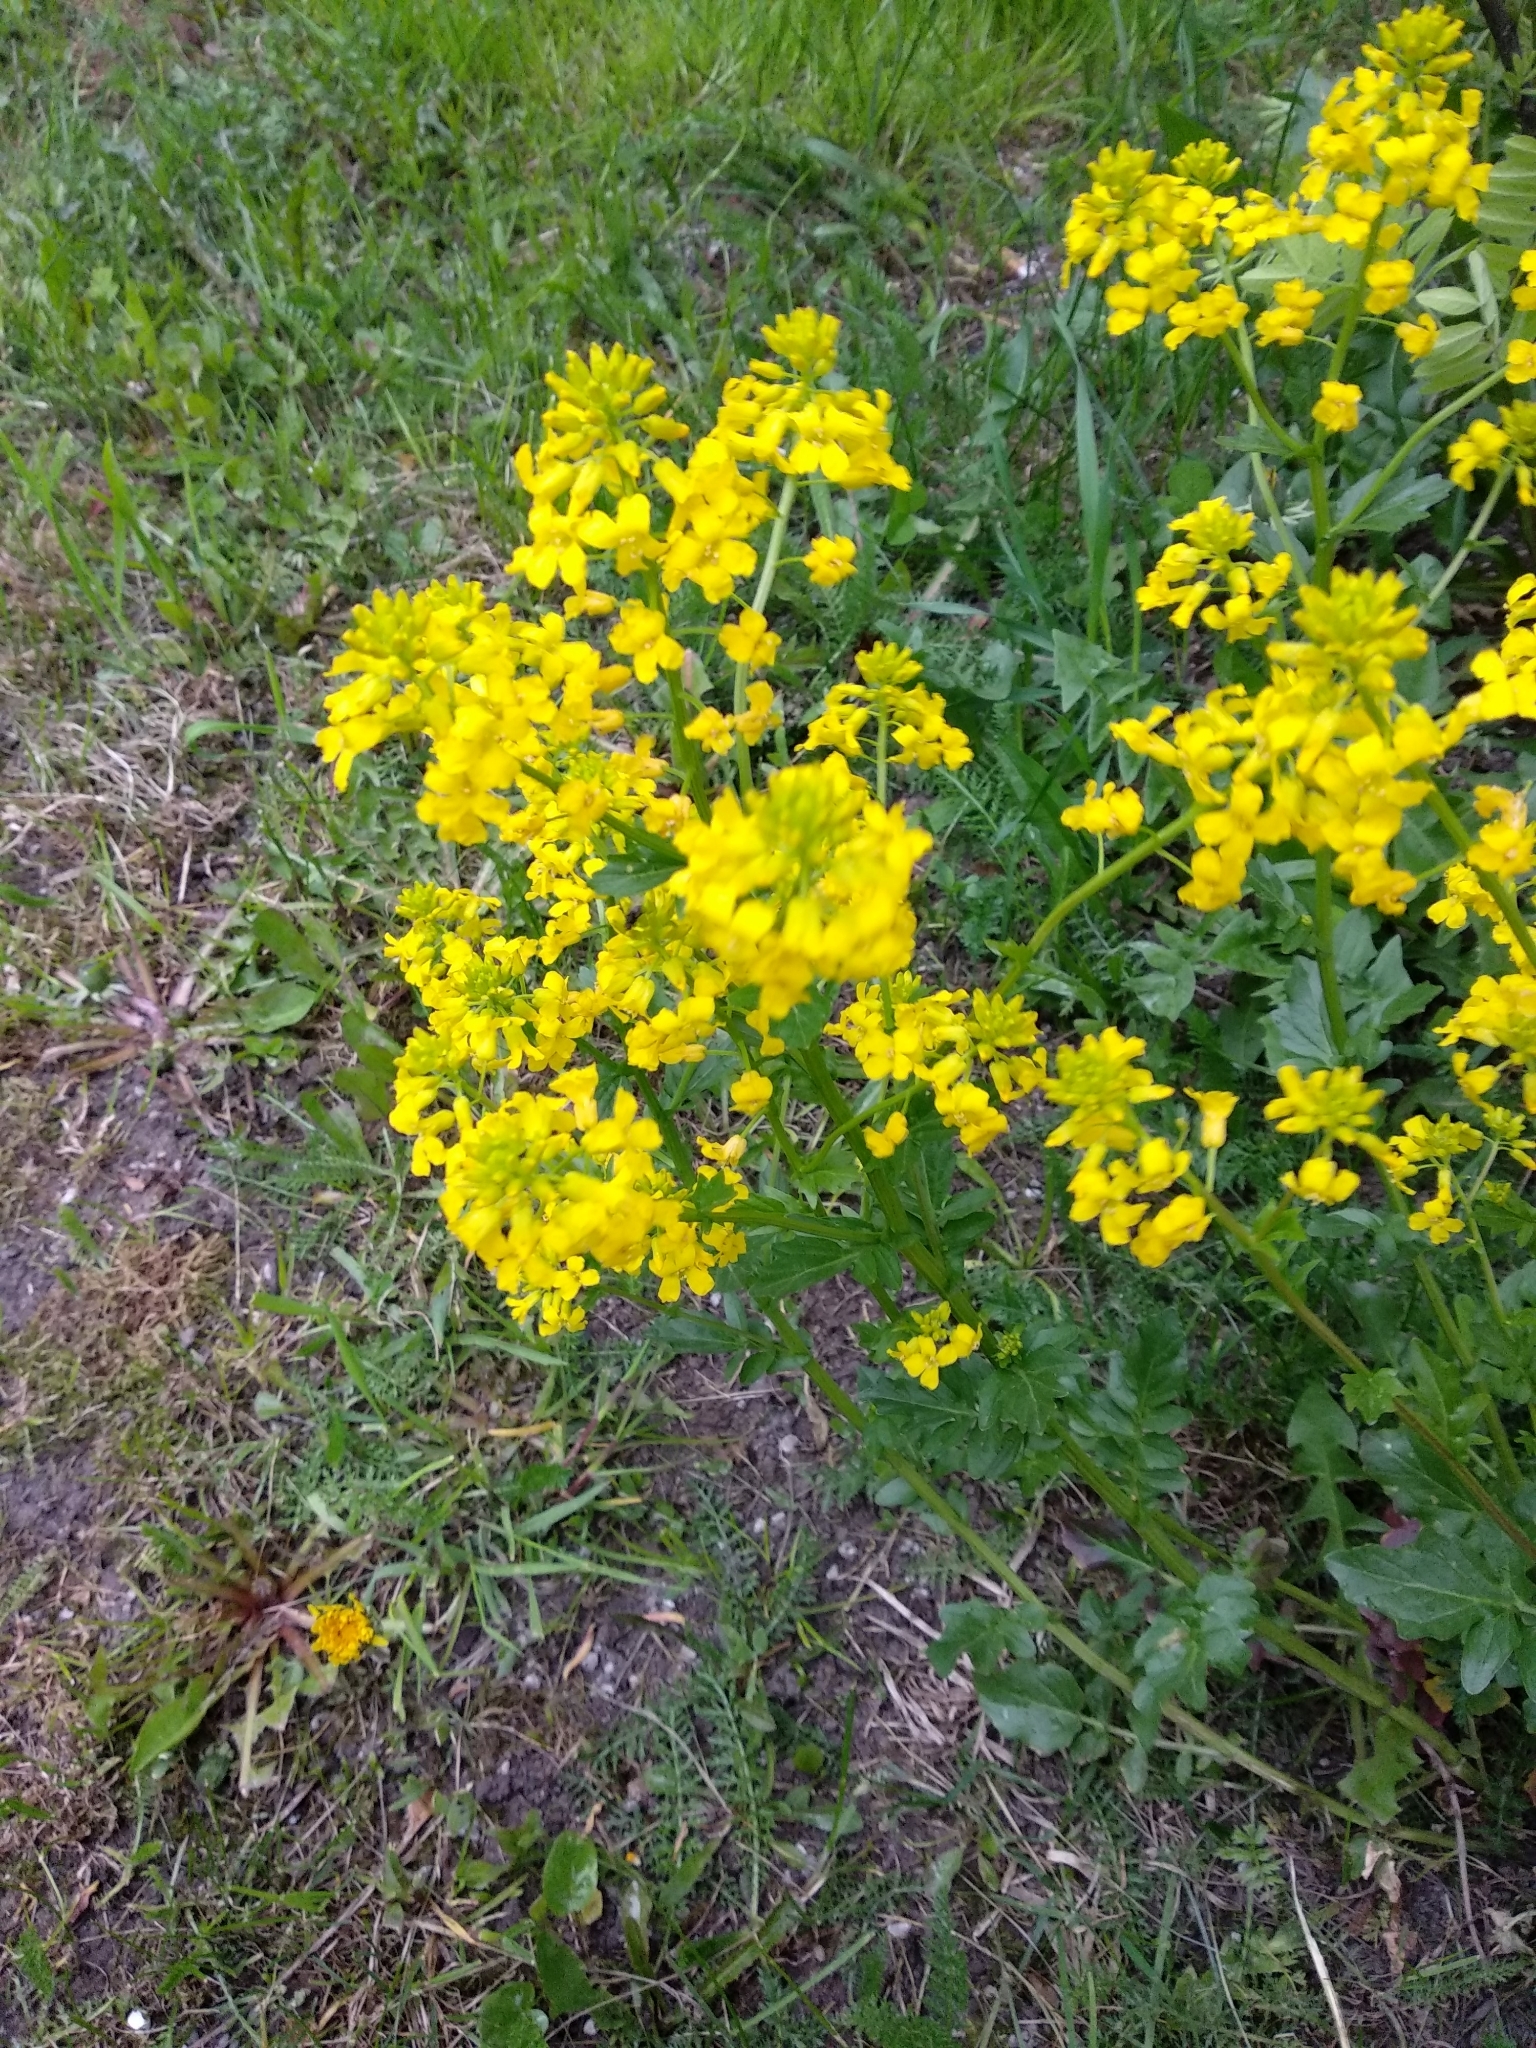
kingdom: Plantae
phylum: Tracheophyta
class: Magnoliopsida
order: Brassicales
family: Brassicaceae
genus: Barbarea
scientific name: Barbarea vulgaris
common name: Cressy-greens
